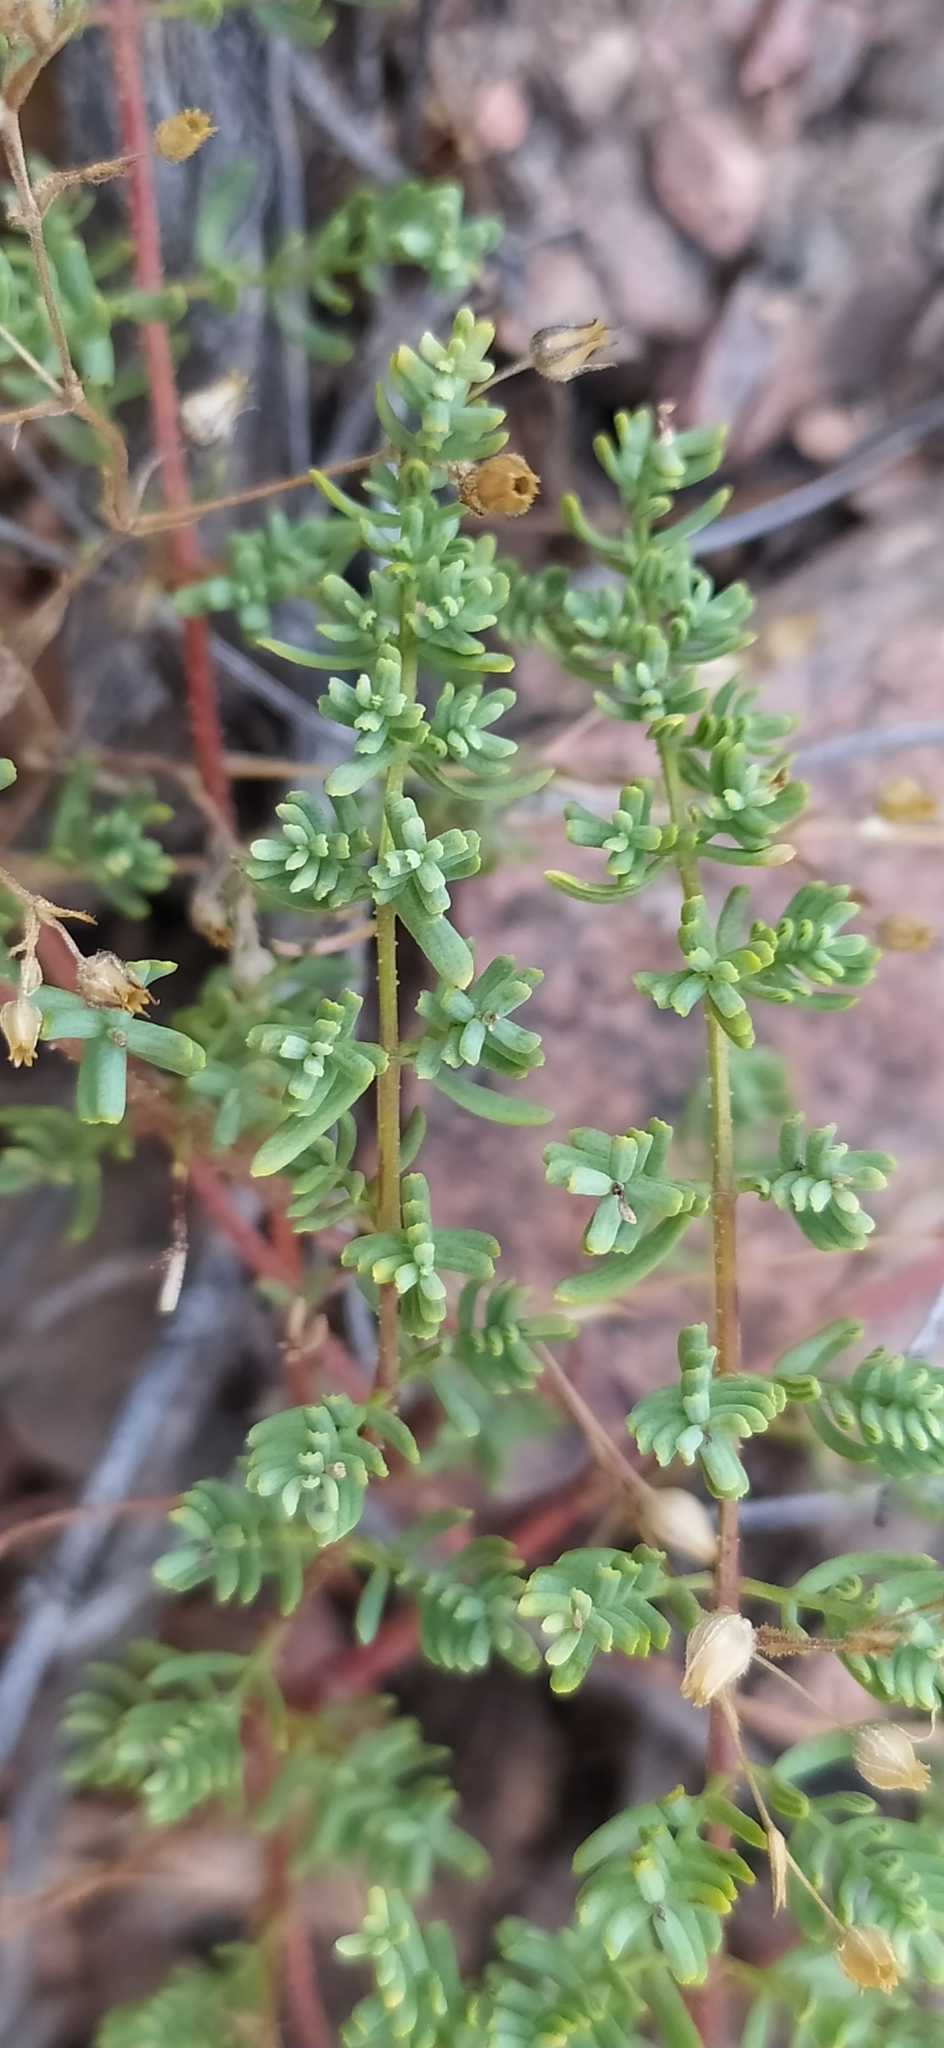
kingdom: Plantae
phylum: Tracheophyta
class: Magnoliopsida
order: Malpighiales
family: Hypericaceae
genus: Hypericum
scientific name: Hypericum scabrum
